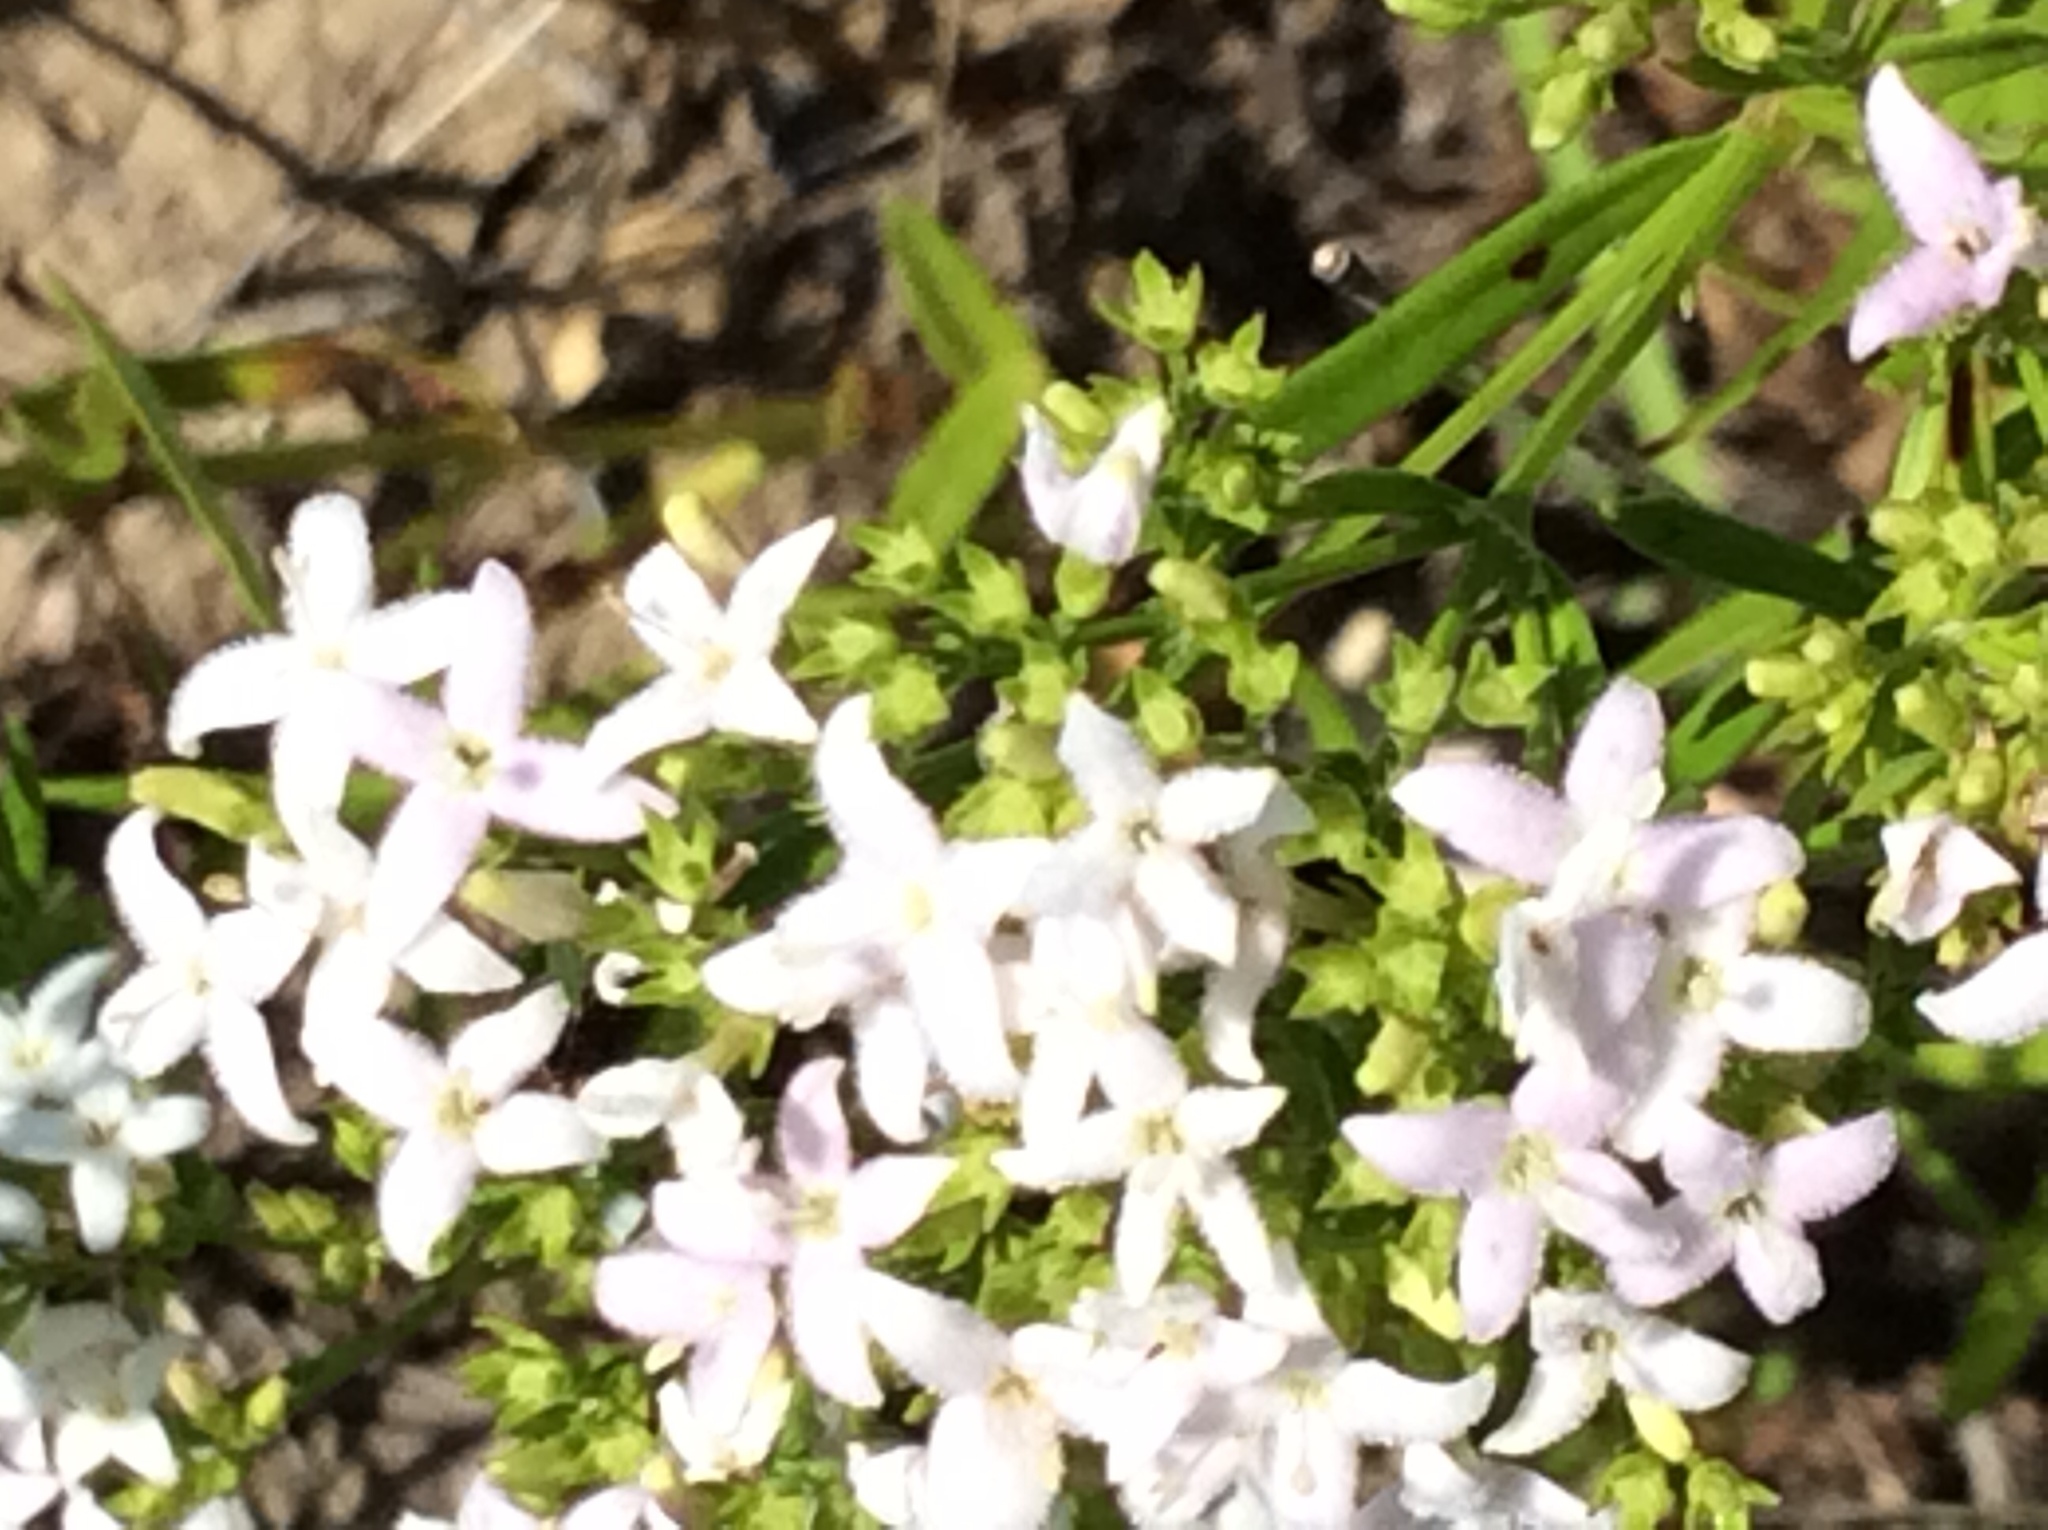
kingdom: Plantae
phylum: Tracheophyta
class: Magnoliopsida
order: Gentianales
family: Rubiaceae
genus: Stenaria
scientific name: Stenaria nigricans
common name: Diamondflowers
